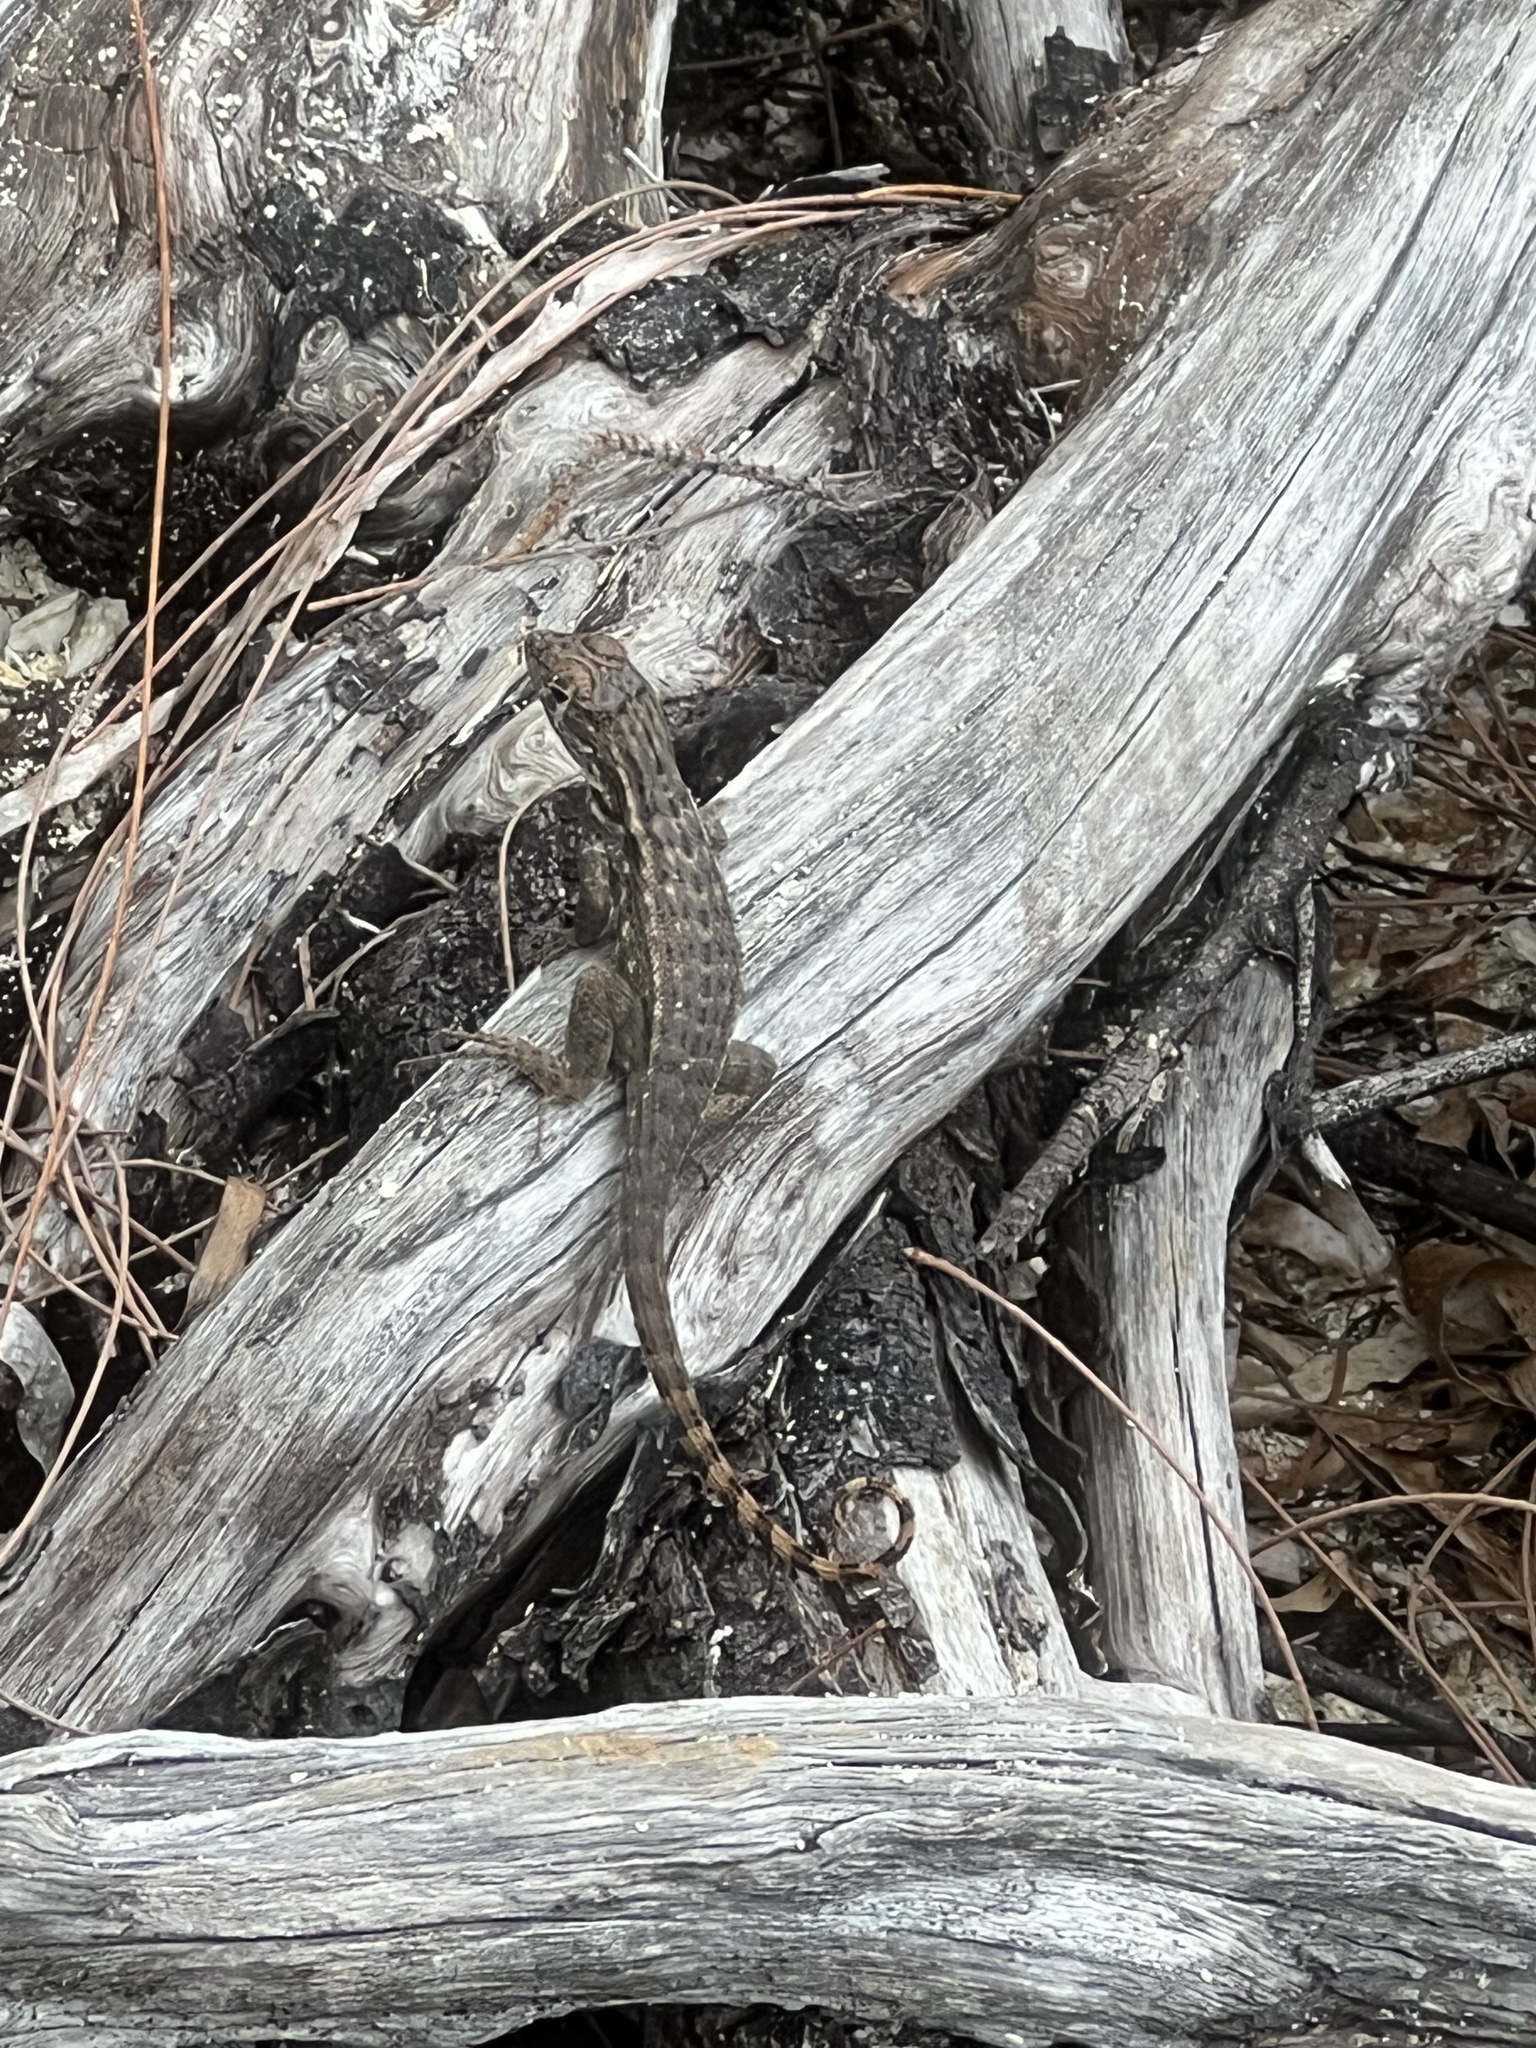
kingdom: Animalia
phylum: Chordata
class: Squamata
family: Leiocephalidae
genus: Leiocephalus
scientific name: Leiocephalus varius
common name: Cayman curlytail
